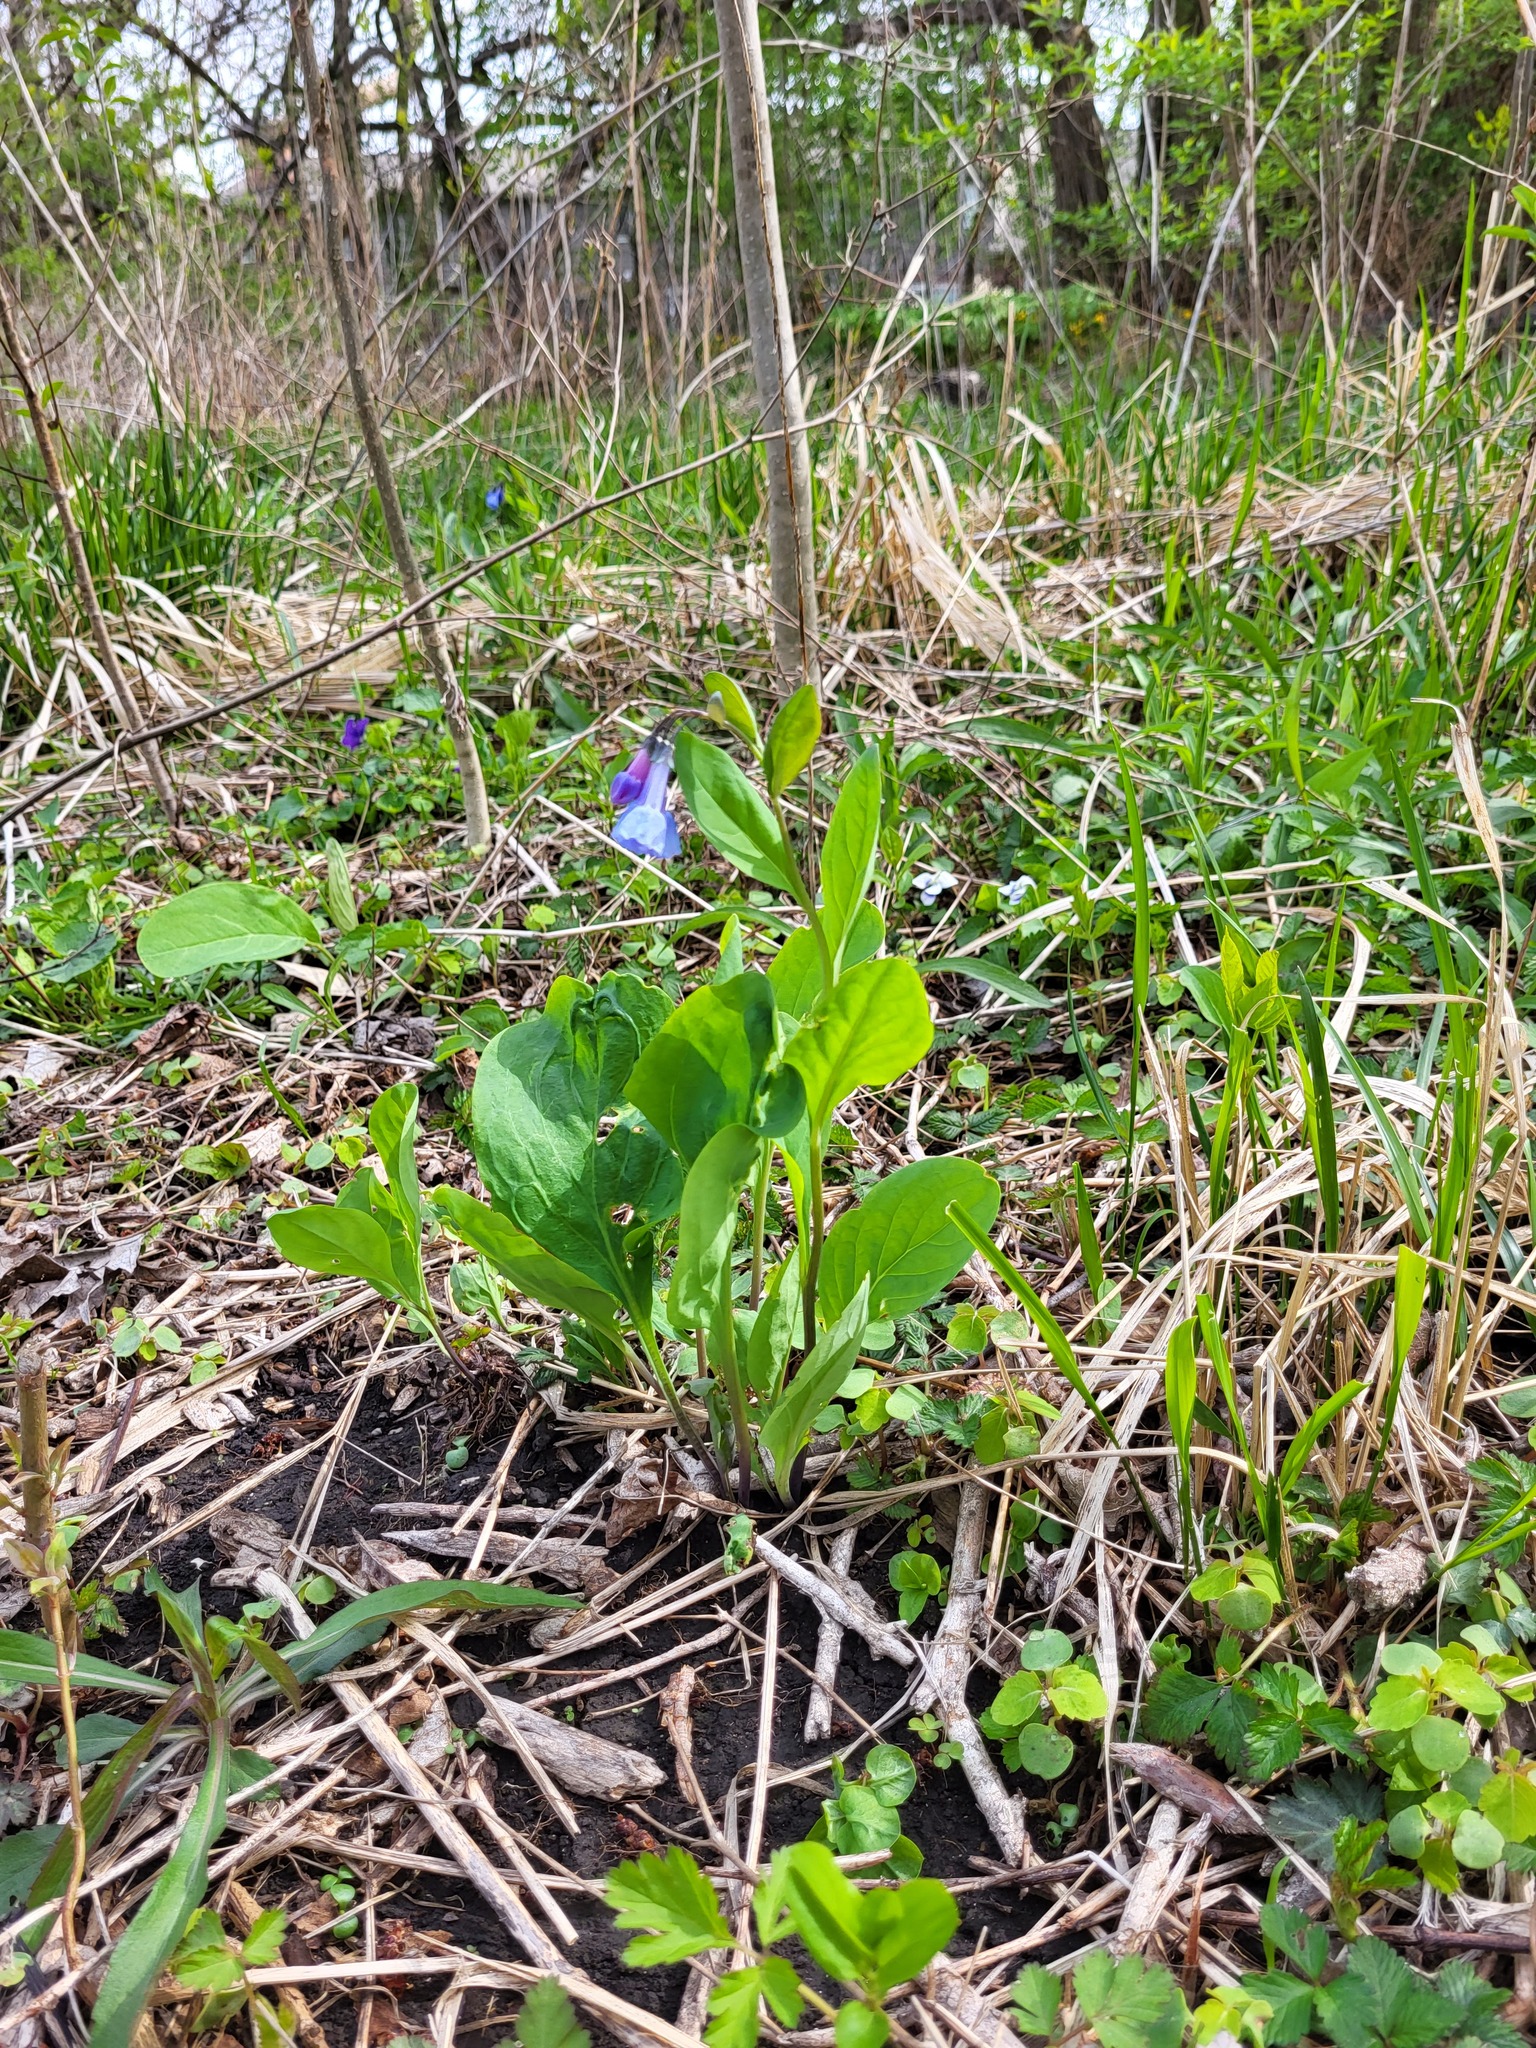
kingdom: Plantae
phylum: Tracheophyta
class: Magnoliopsida
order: Boraginales
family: Boraginaceae
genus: Mertensia
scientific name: Mertensia virginica
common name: Virginia bluebells
